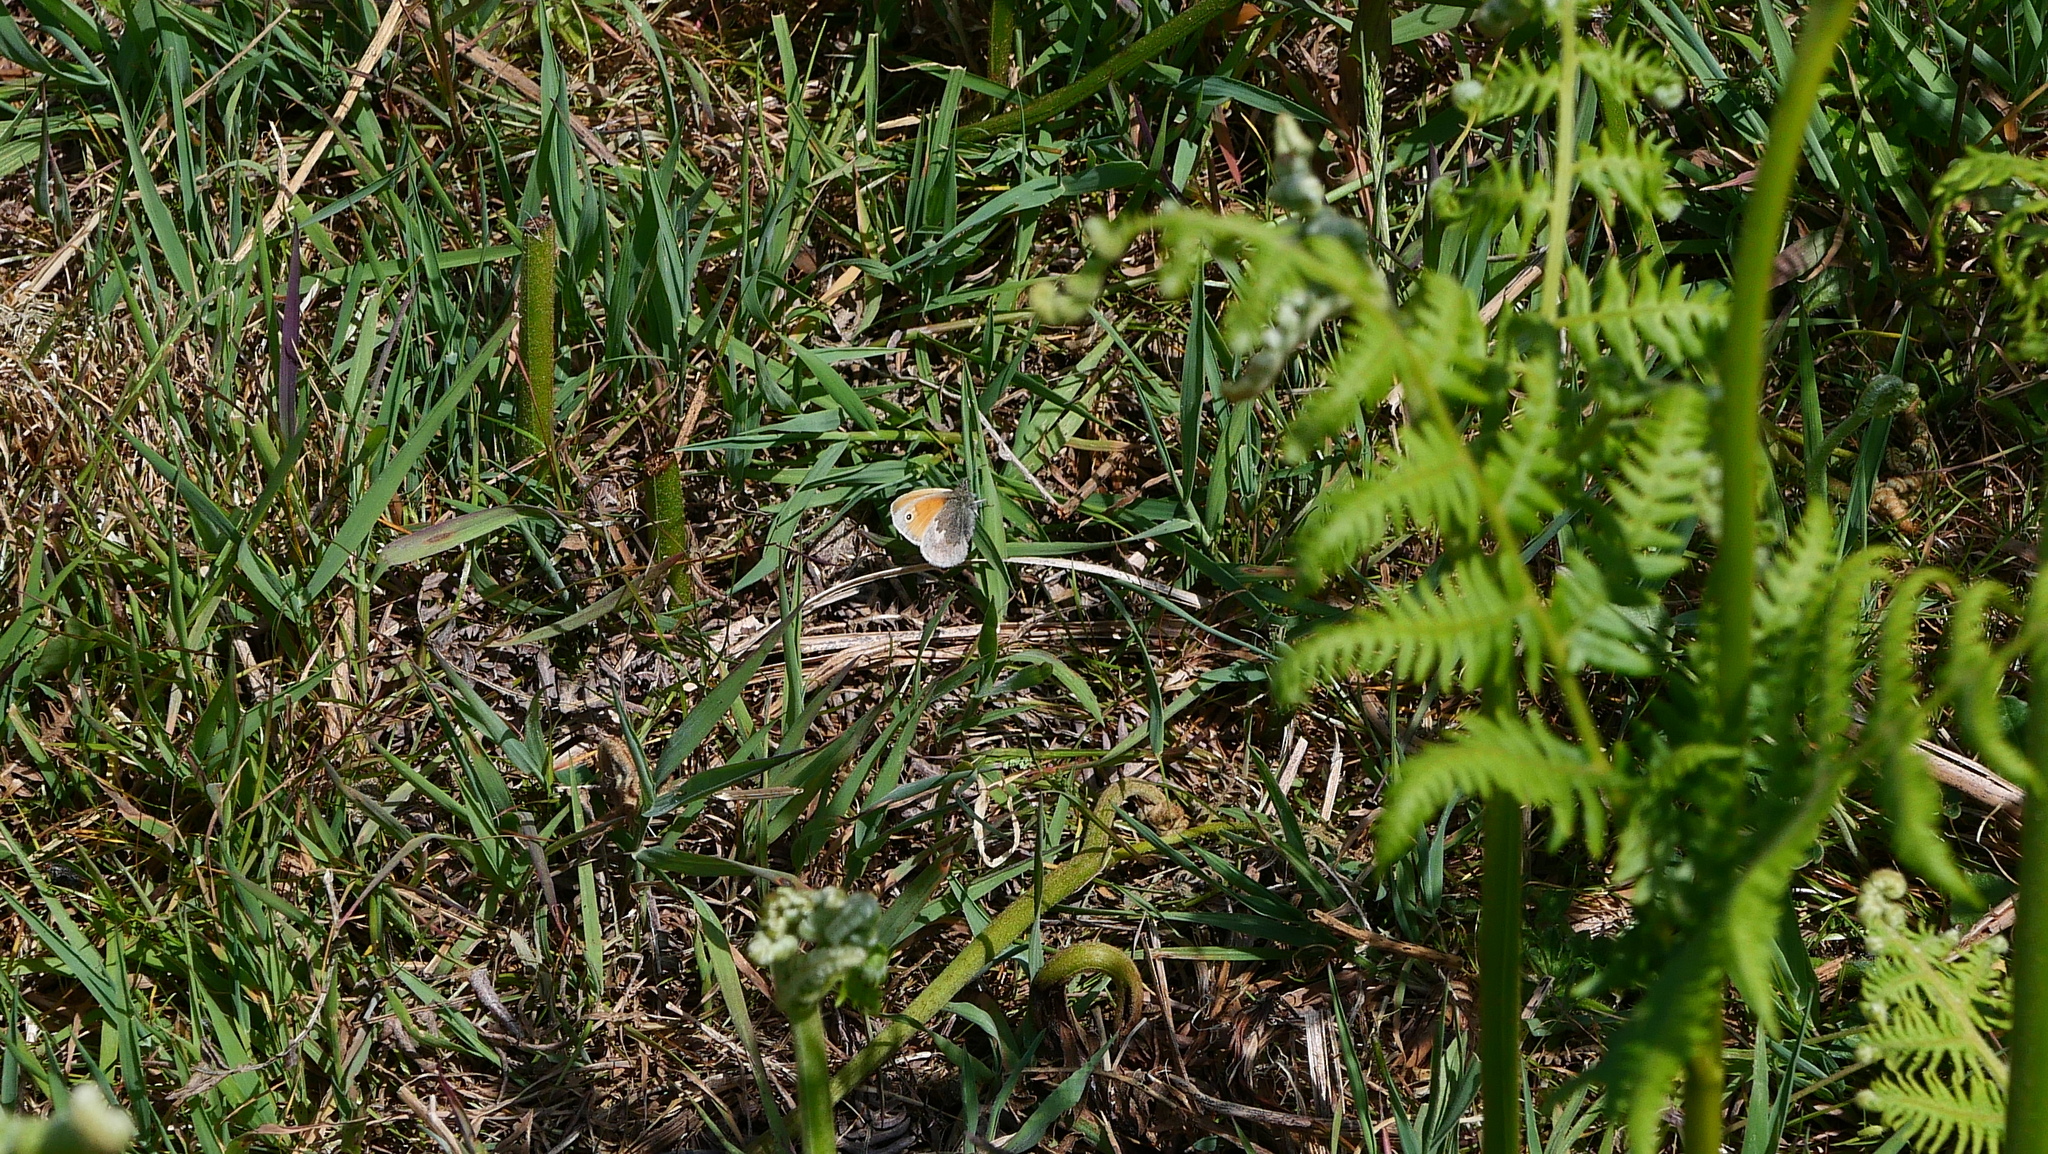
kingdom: Animalia
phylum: Arthropoda
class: Insecta
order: Lepidoptera
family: Nymphalidae
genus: Coenonympha
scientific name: Coenonympha pamphilus
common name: Small heath
